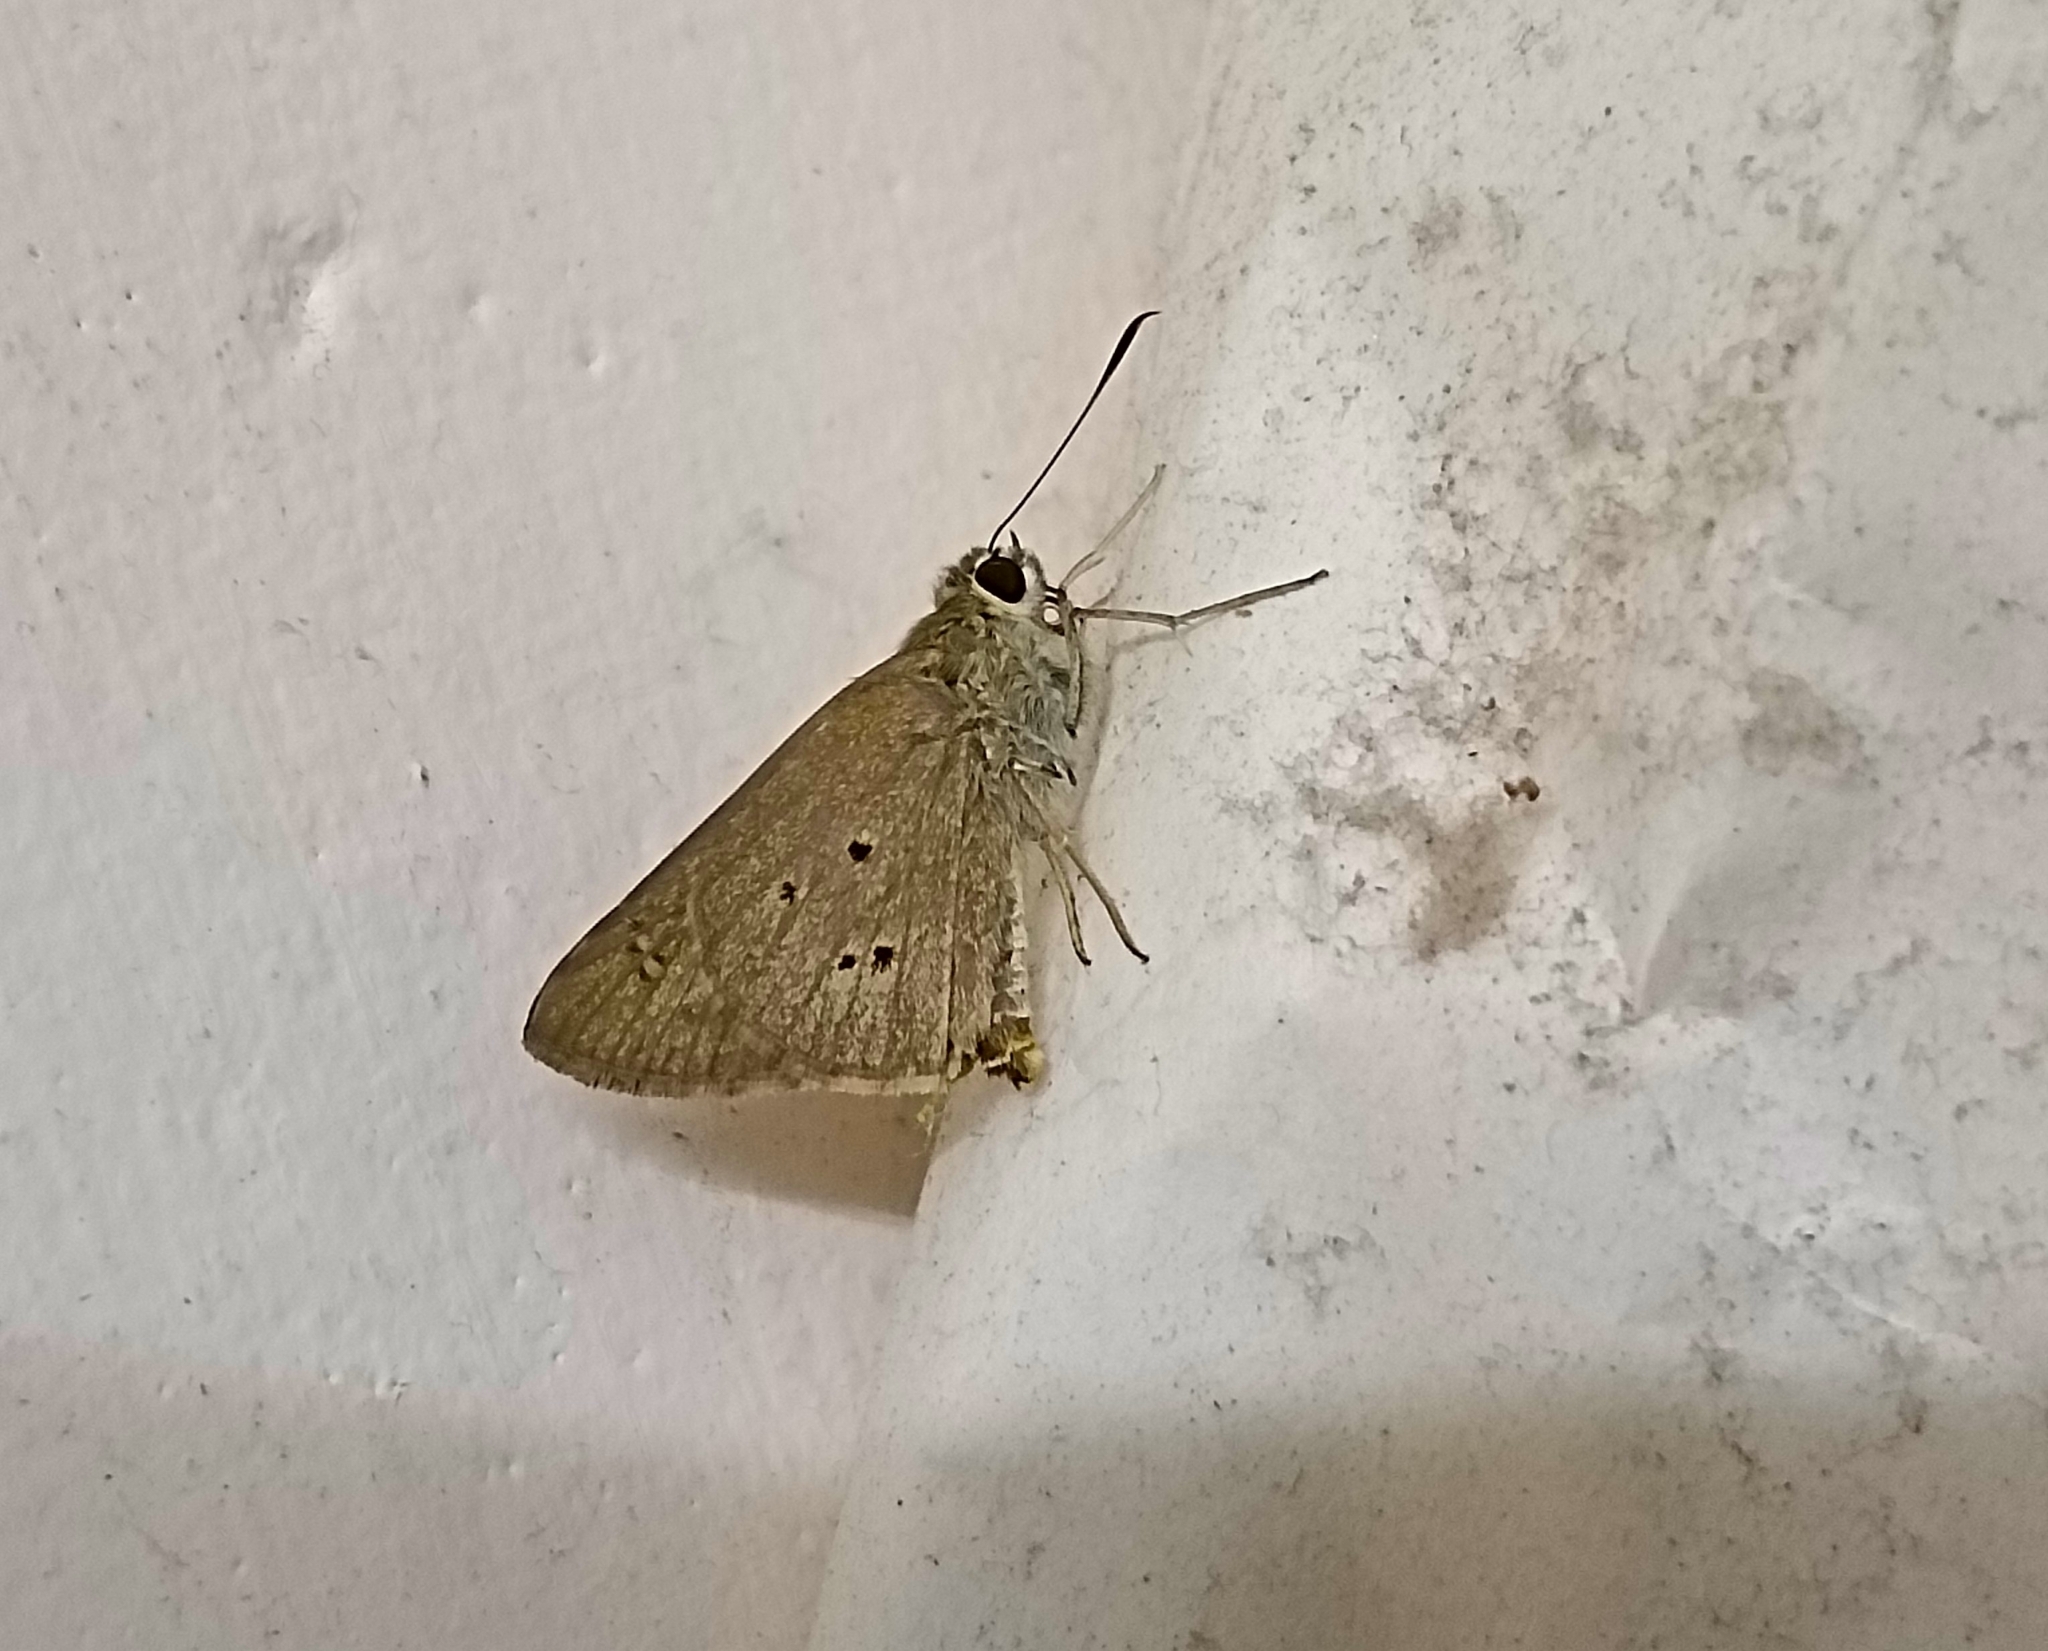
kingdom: Animalia
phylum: Arthropoda
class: Insecta
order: Lepidoptera
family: Hesperiidae
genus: Suastus
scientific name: Suastus gremius
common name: Indian palm bob
